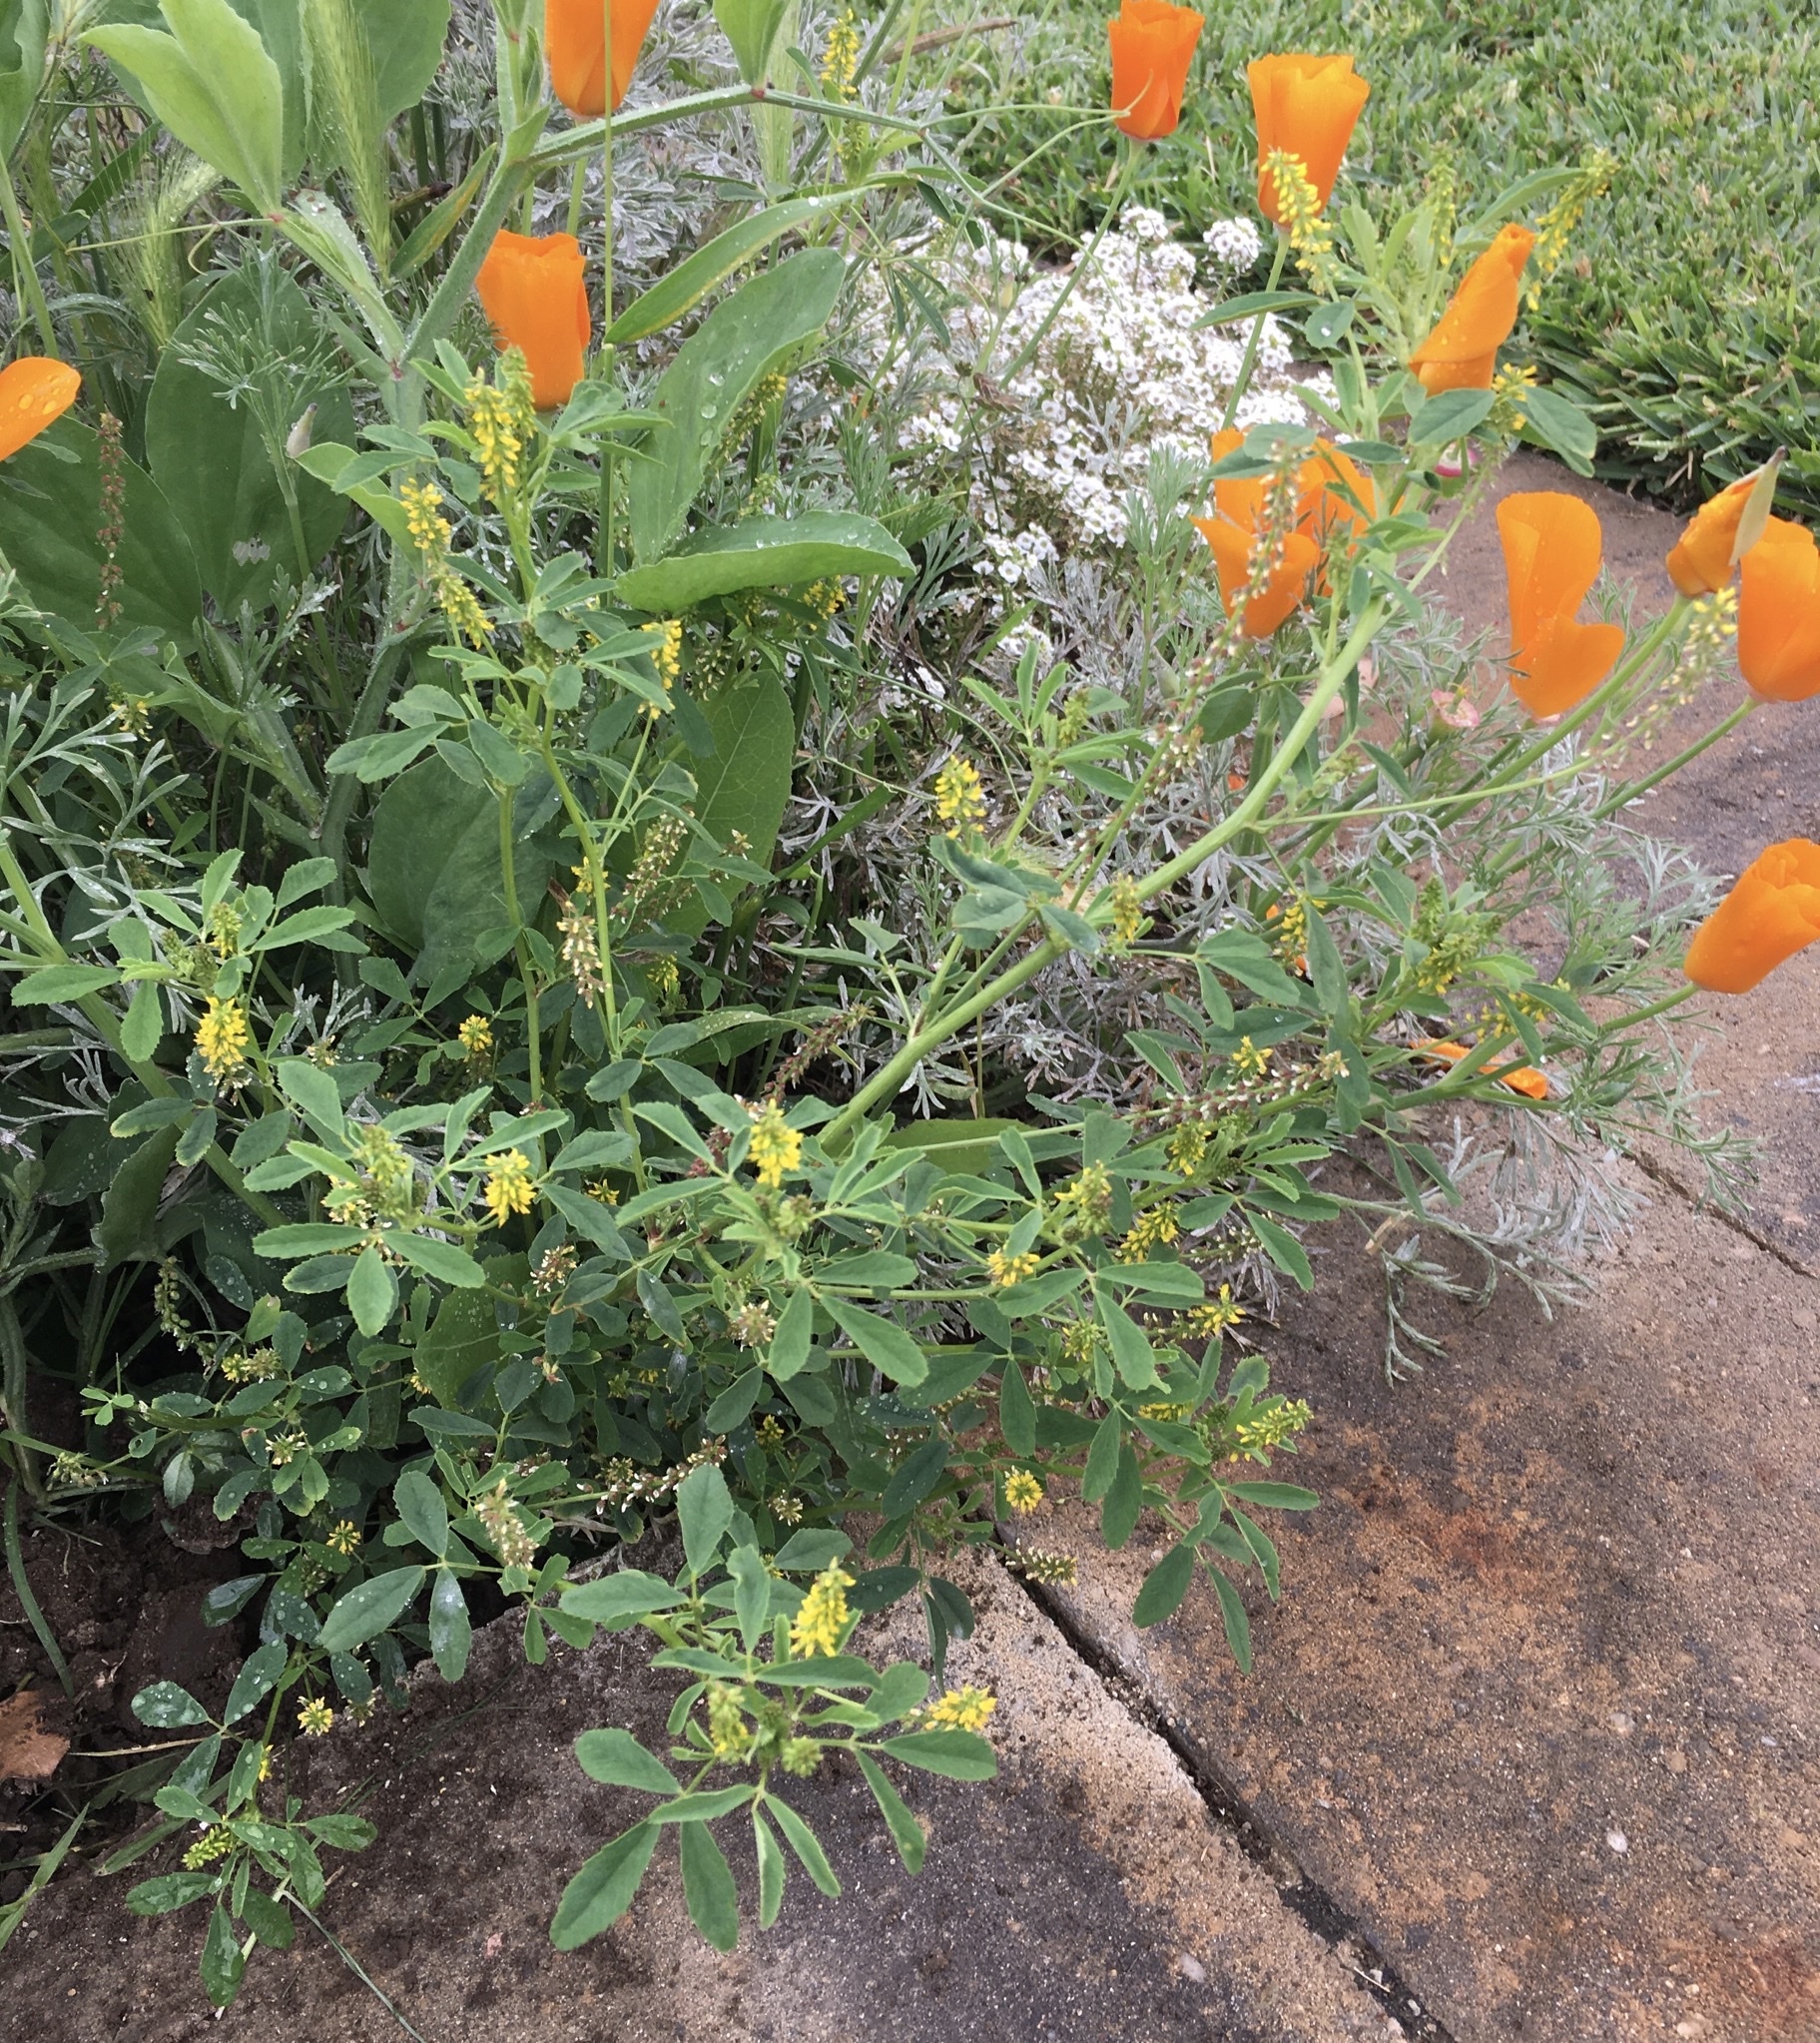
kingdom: Plantae
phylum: Tracheophyta
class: Magnoliopsida
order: Fabales
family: Fabaceae
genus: Melilotus
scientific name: Melilotus indicus
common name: Small melilot
